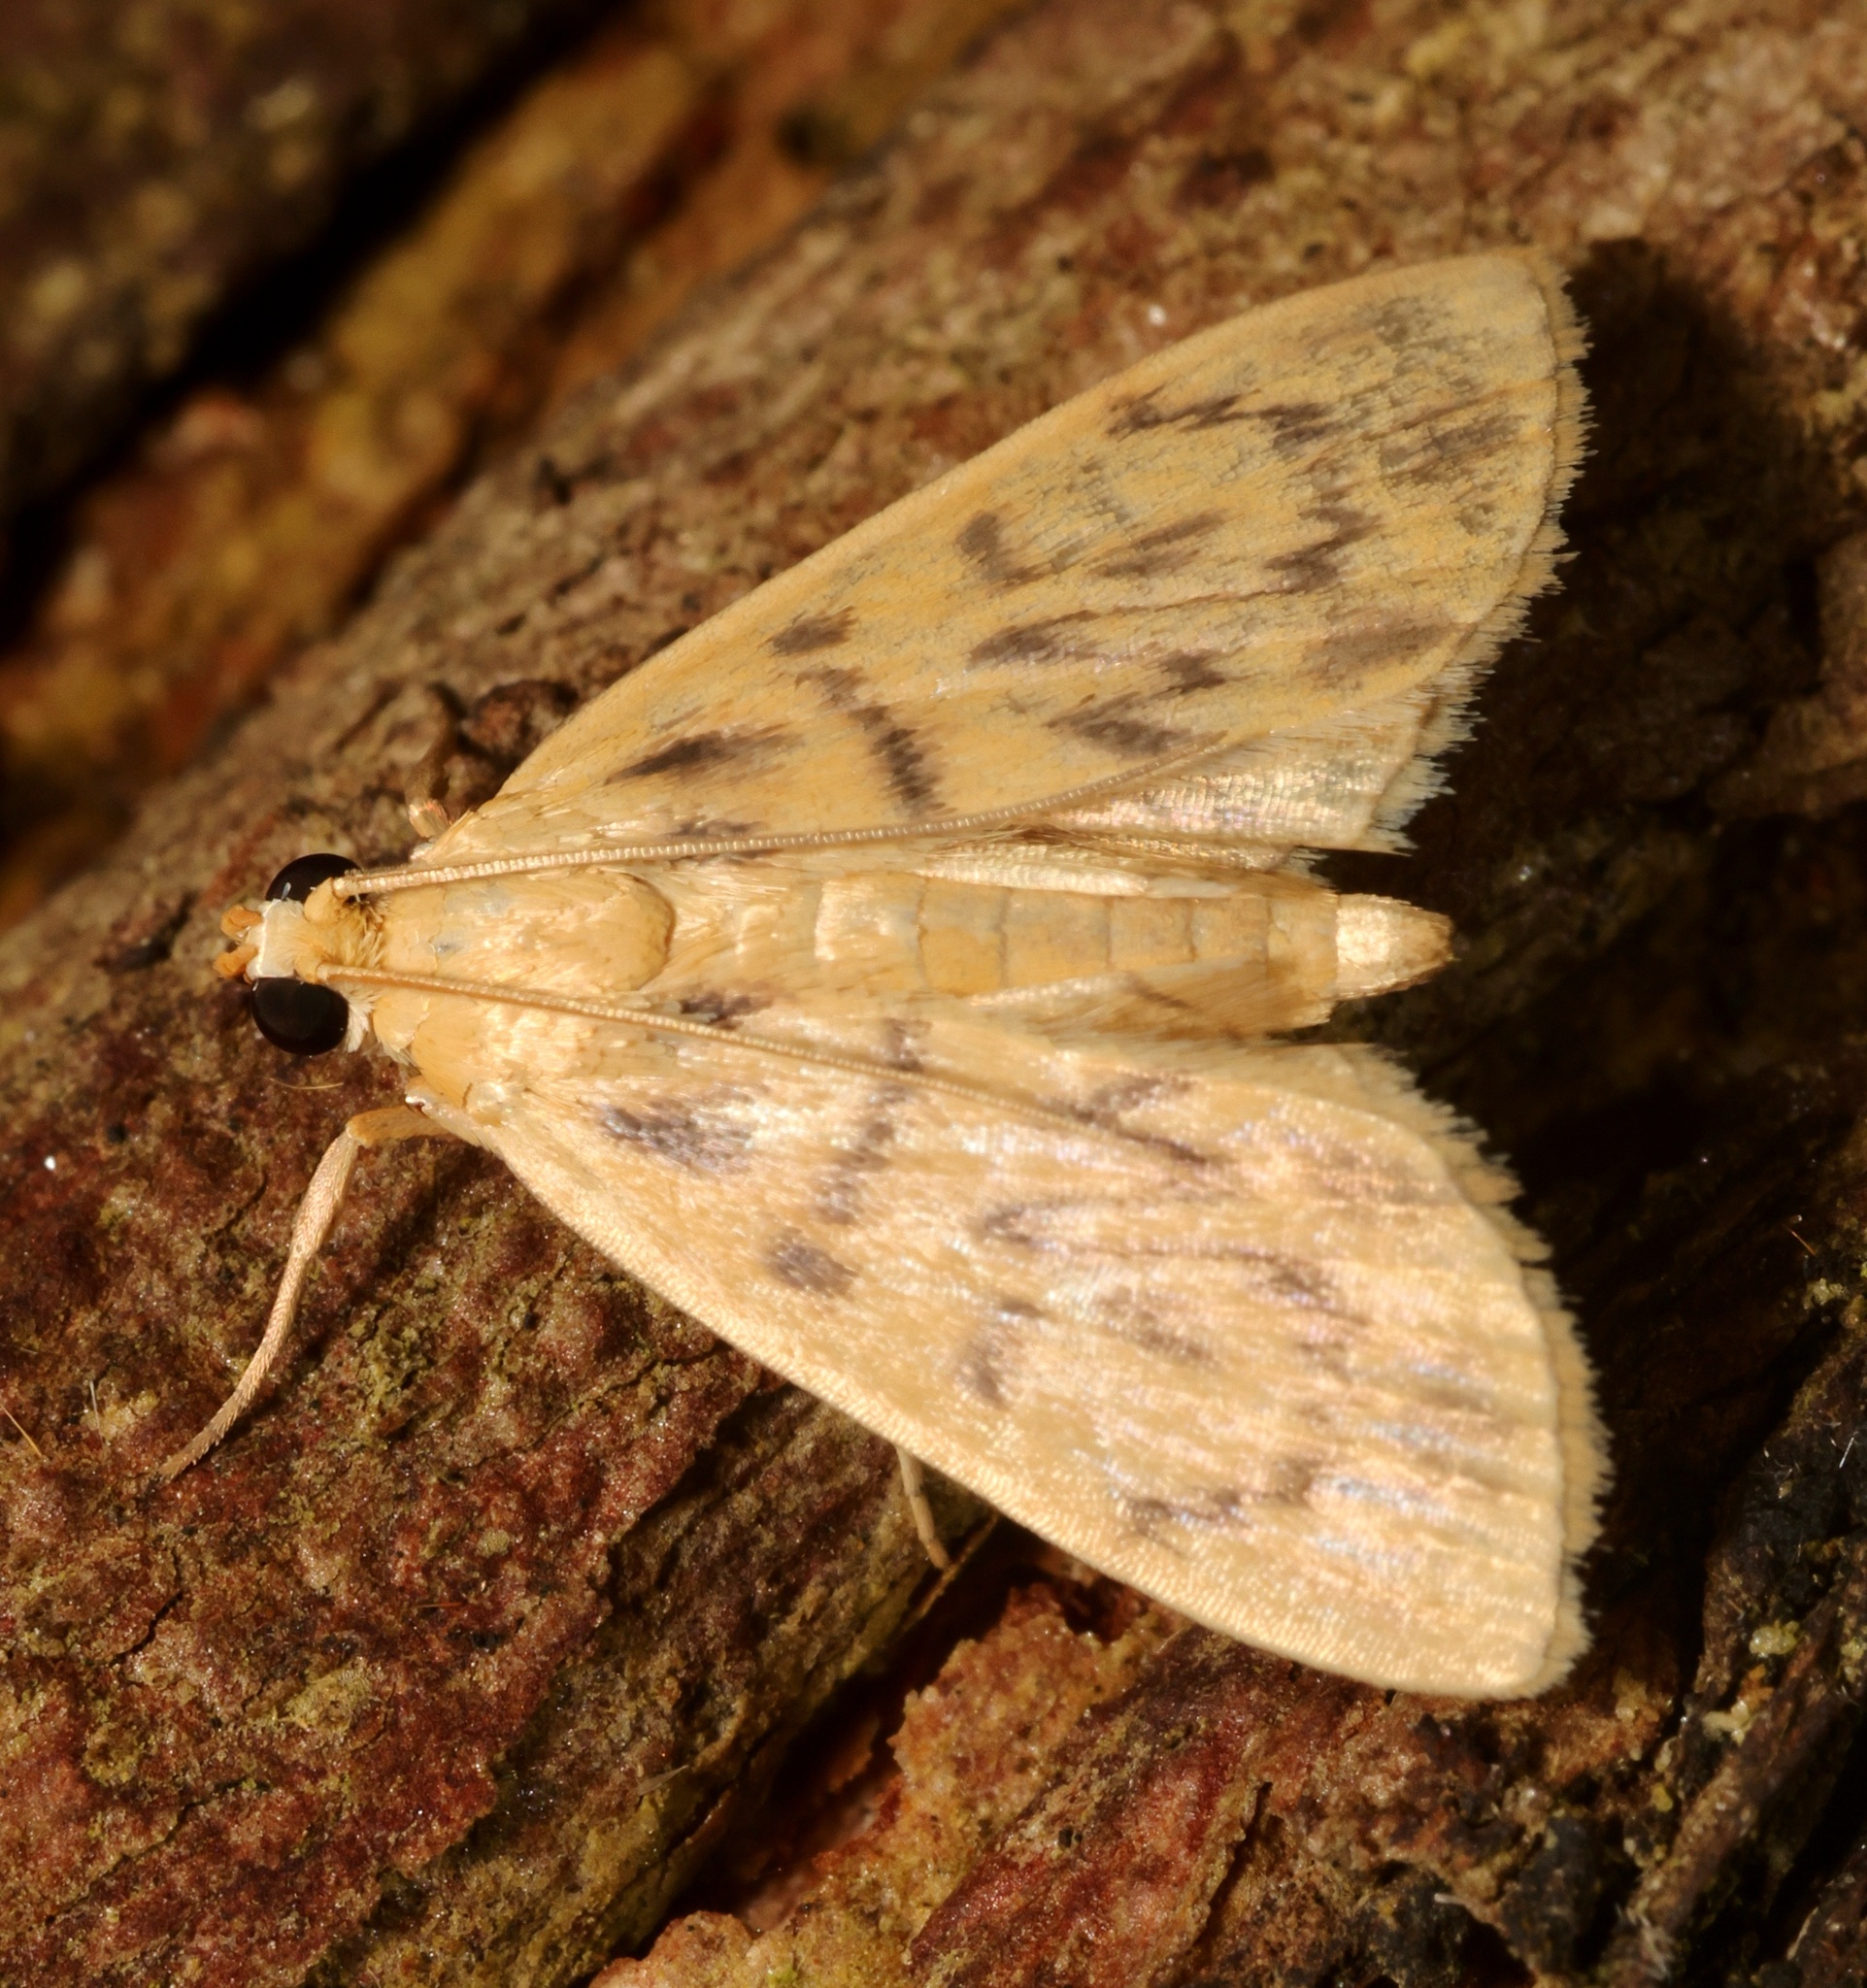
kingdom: Animalia
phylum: Arthropoda
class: Insecta
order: Lepidoptera
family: Crambidae
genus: Tabidia
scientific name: Tabidia
